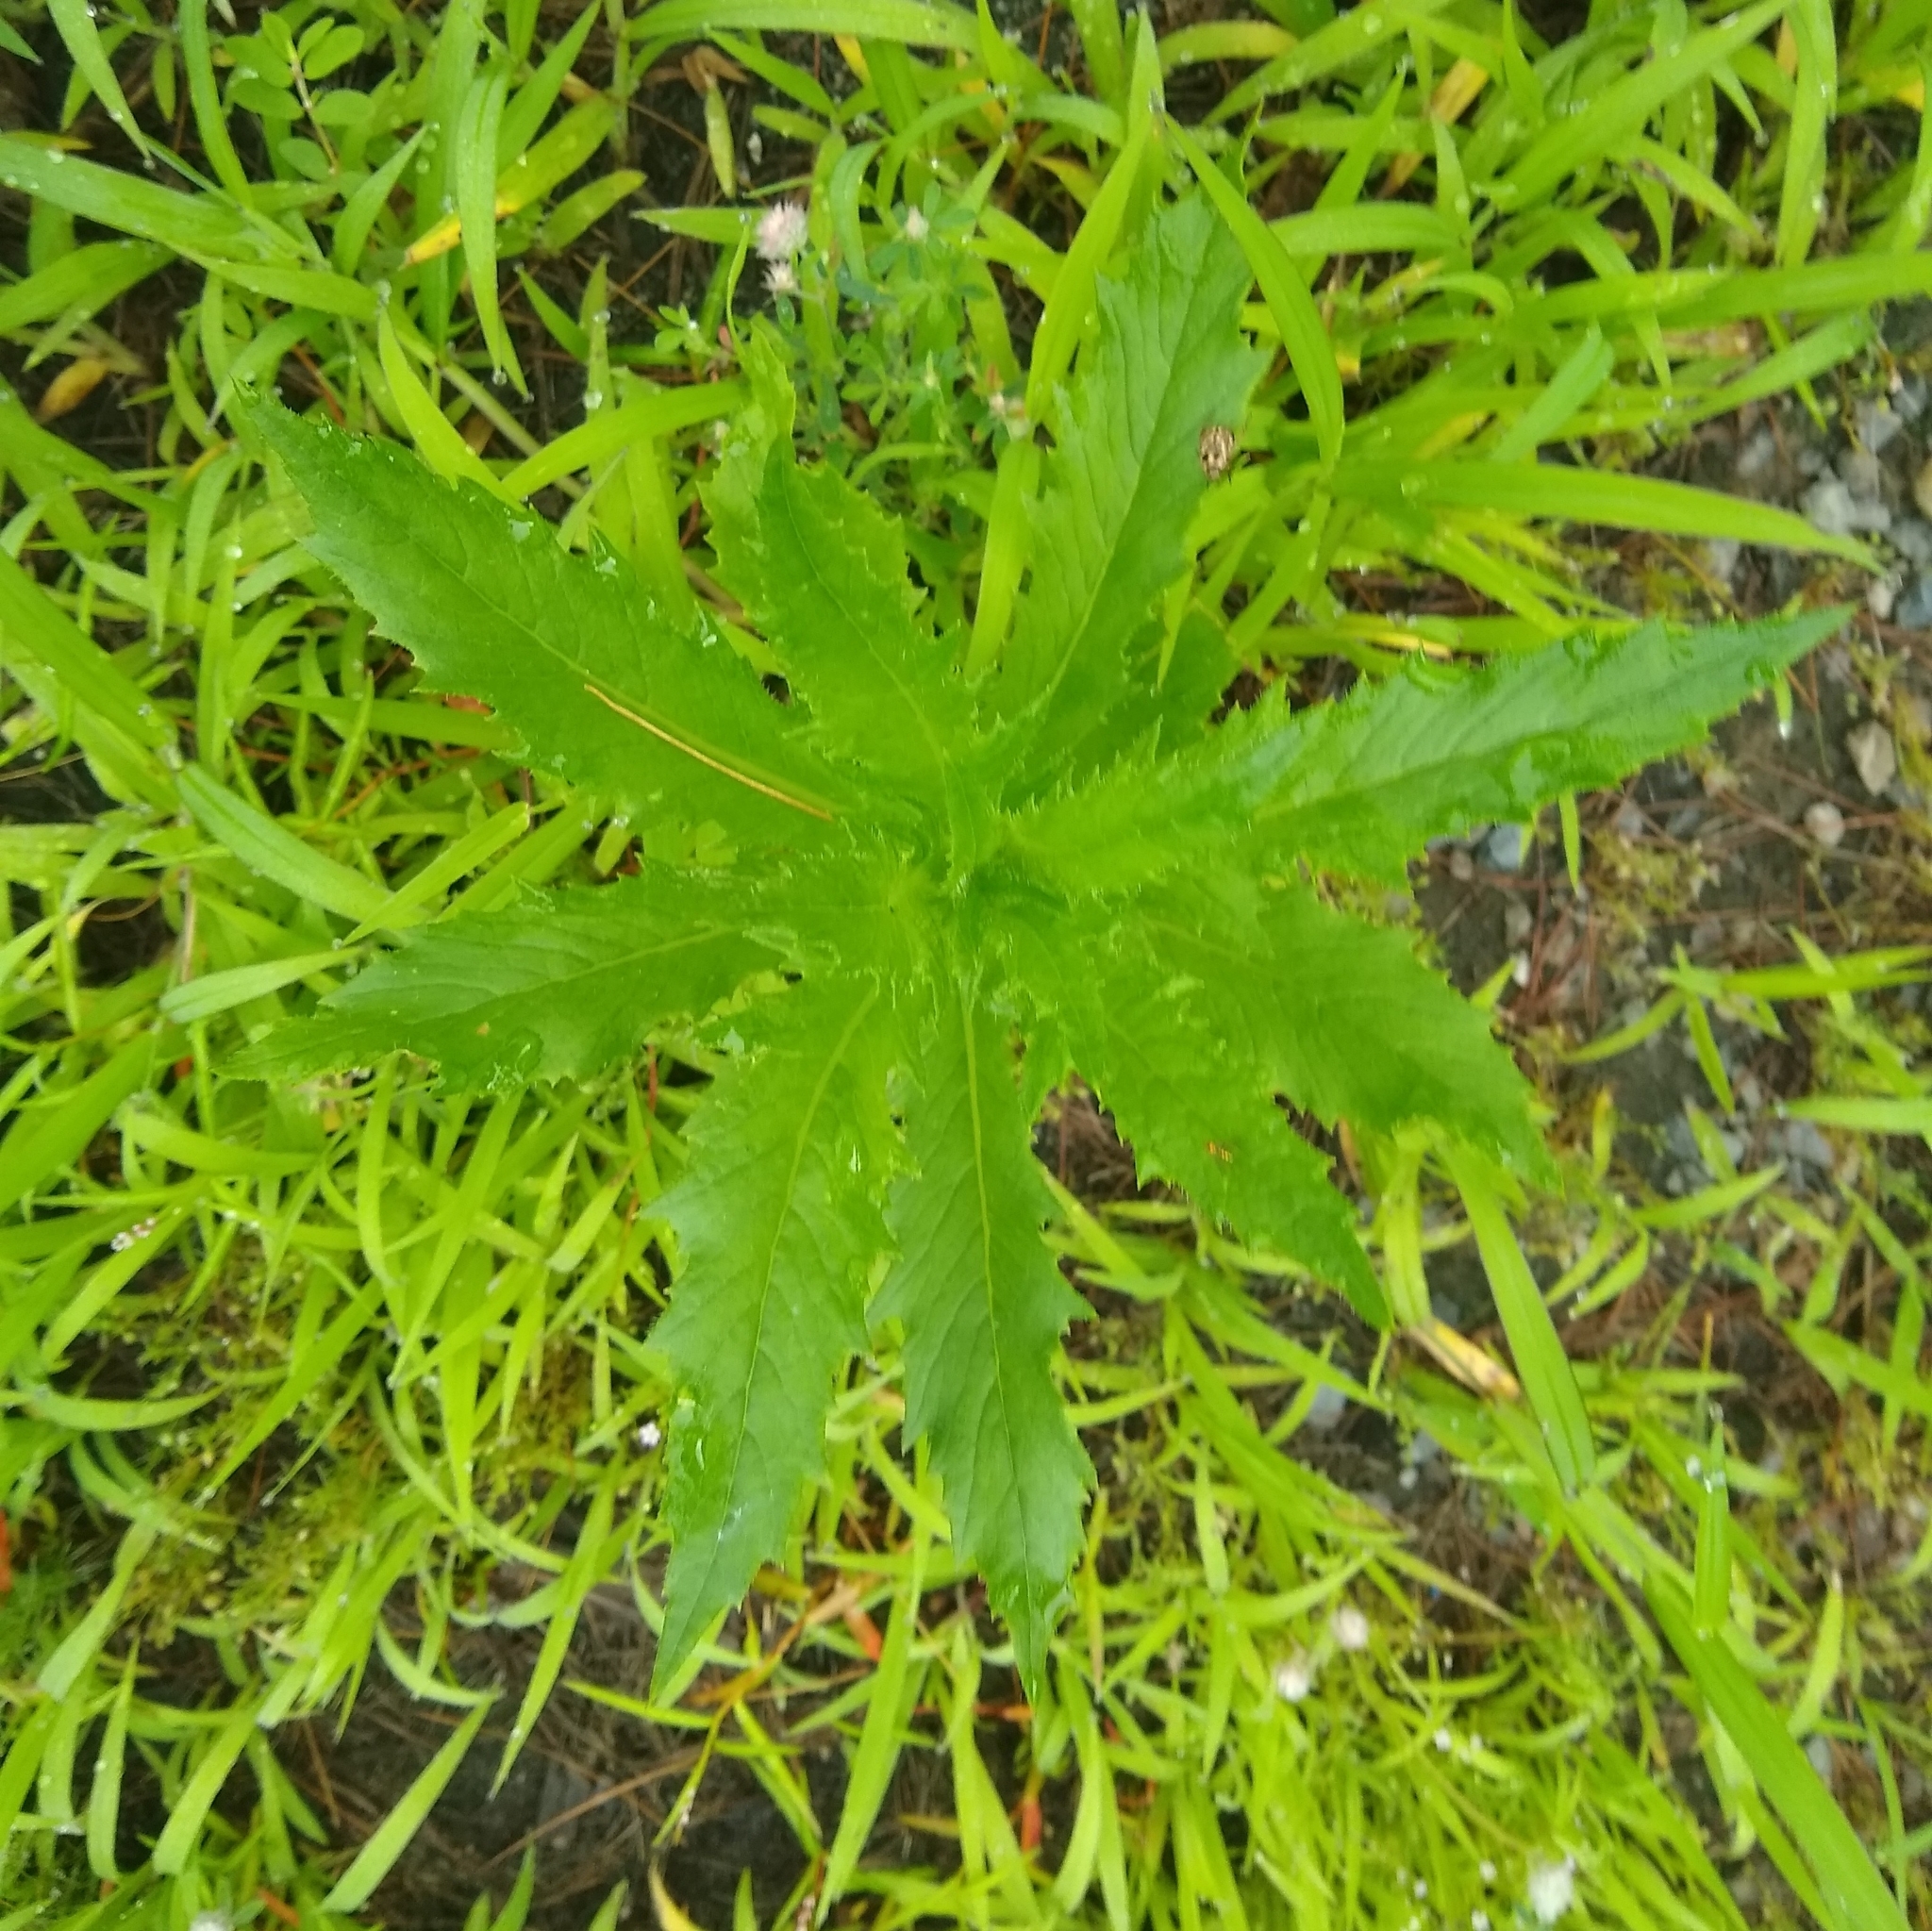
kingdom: Plantae
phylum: Tracheophyta
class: Magnoliopsida
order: Asterales
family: Asteraceae
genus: Erechtites
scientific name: Erechtites hieraciifolius
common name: American burnweed
